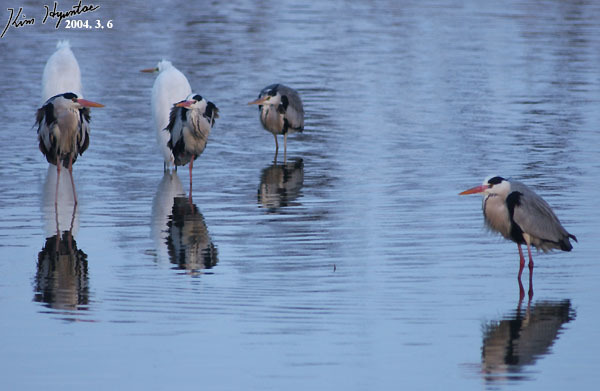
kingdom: Animalia
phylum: Chordata
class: Aves
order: Pelecaniformes
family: Ardeidae
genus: Ardea
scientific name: Ardea cinerea
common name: Grey heron
